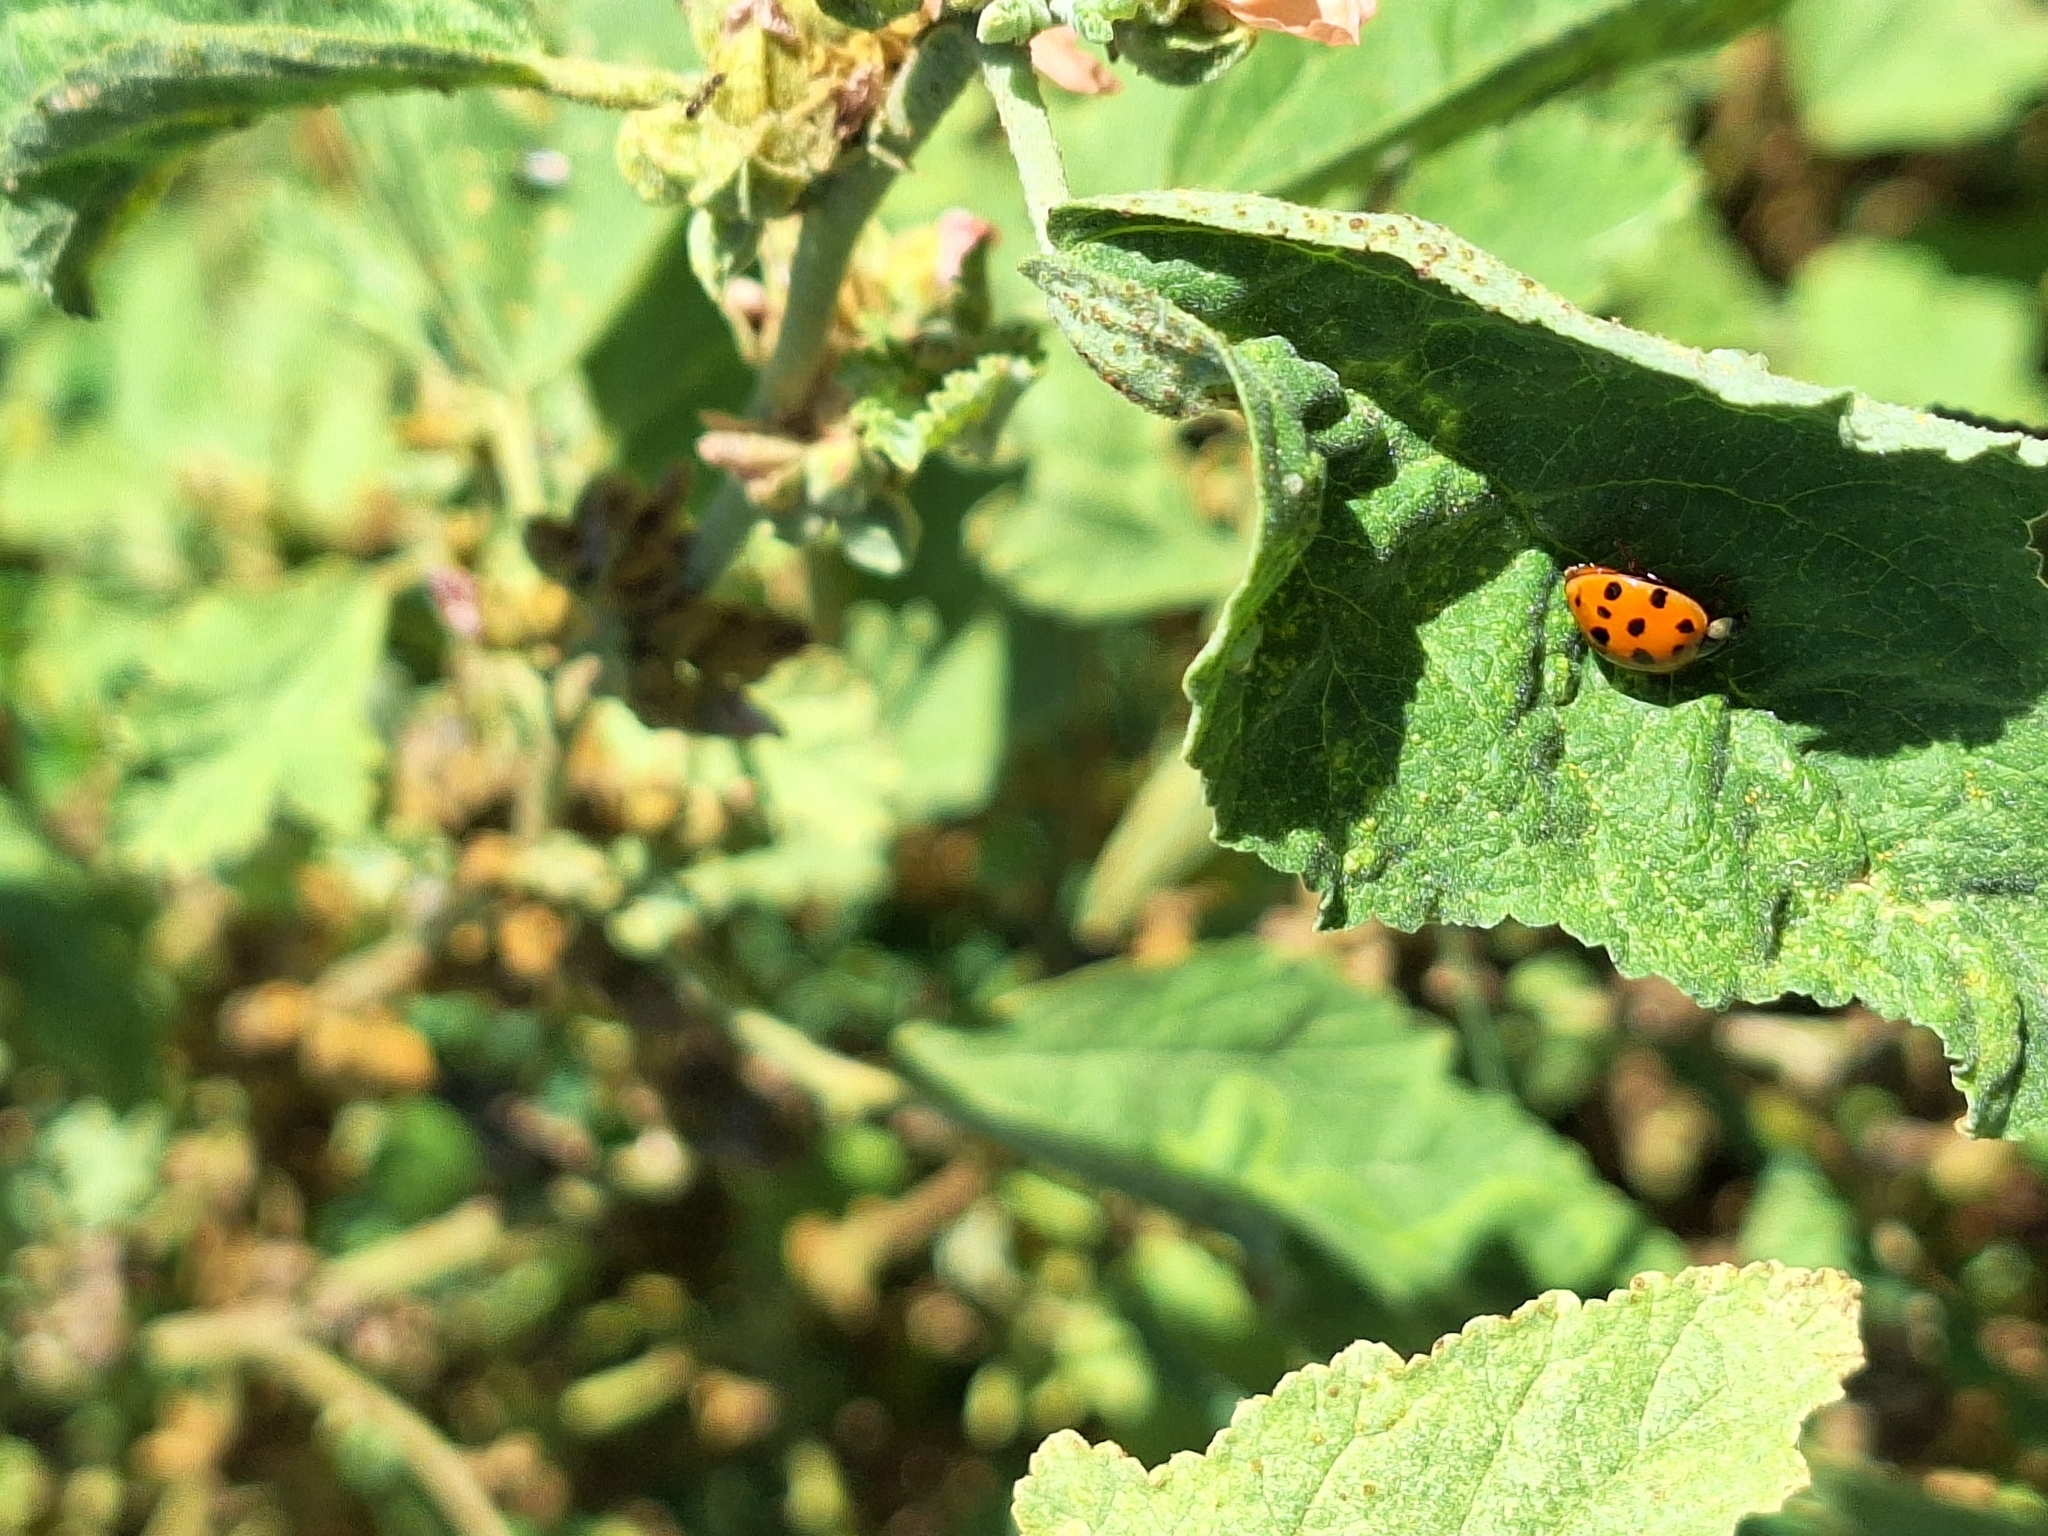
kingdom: Animalia
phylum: Arthropoda
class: Insecta
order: Coleoptera
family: Coccinellidae
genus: Harmonia
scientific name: Harmonia axyridis
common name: Harlequin ladybird
